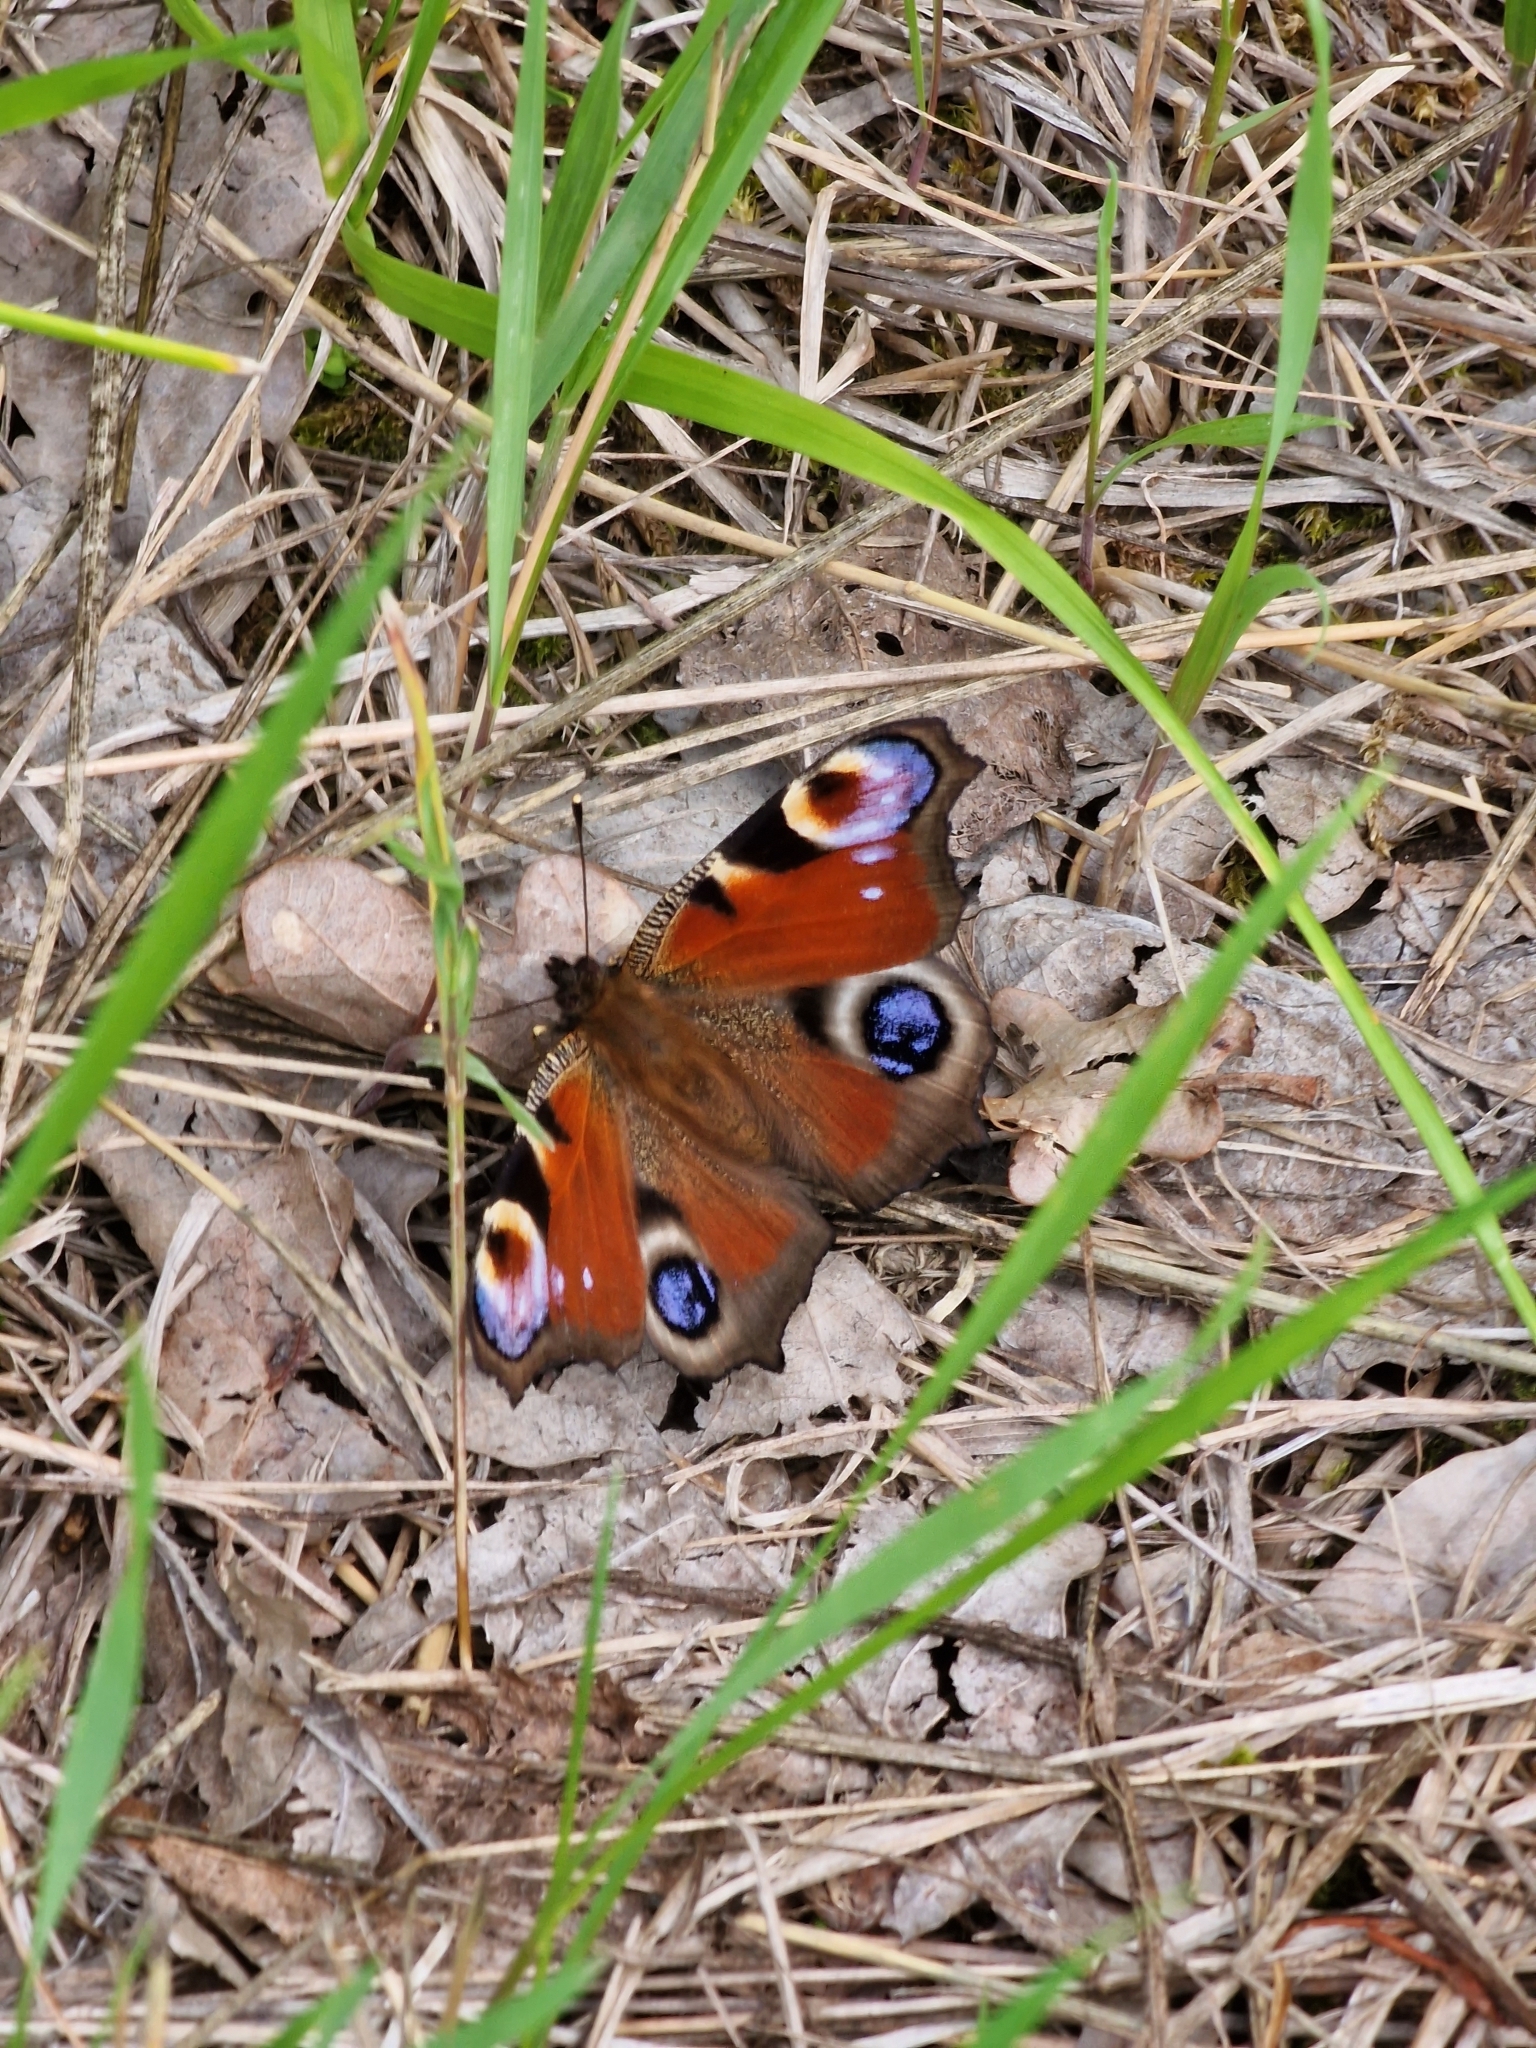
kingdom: Animalia
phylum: Arthropoda
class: Insecta
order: Lepidoptera
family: Nymphalidae
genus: Aglais
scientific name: Aglais io
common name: Peacock
